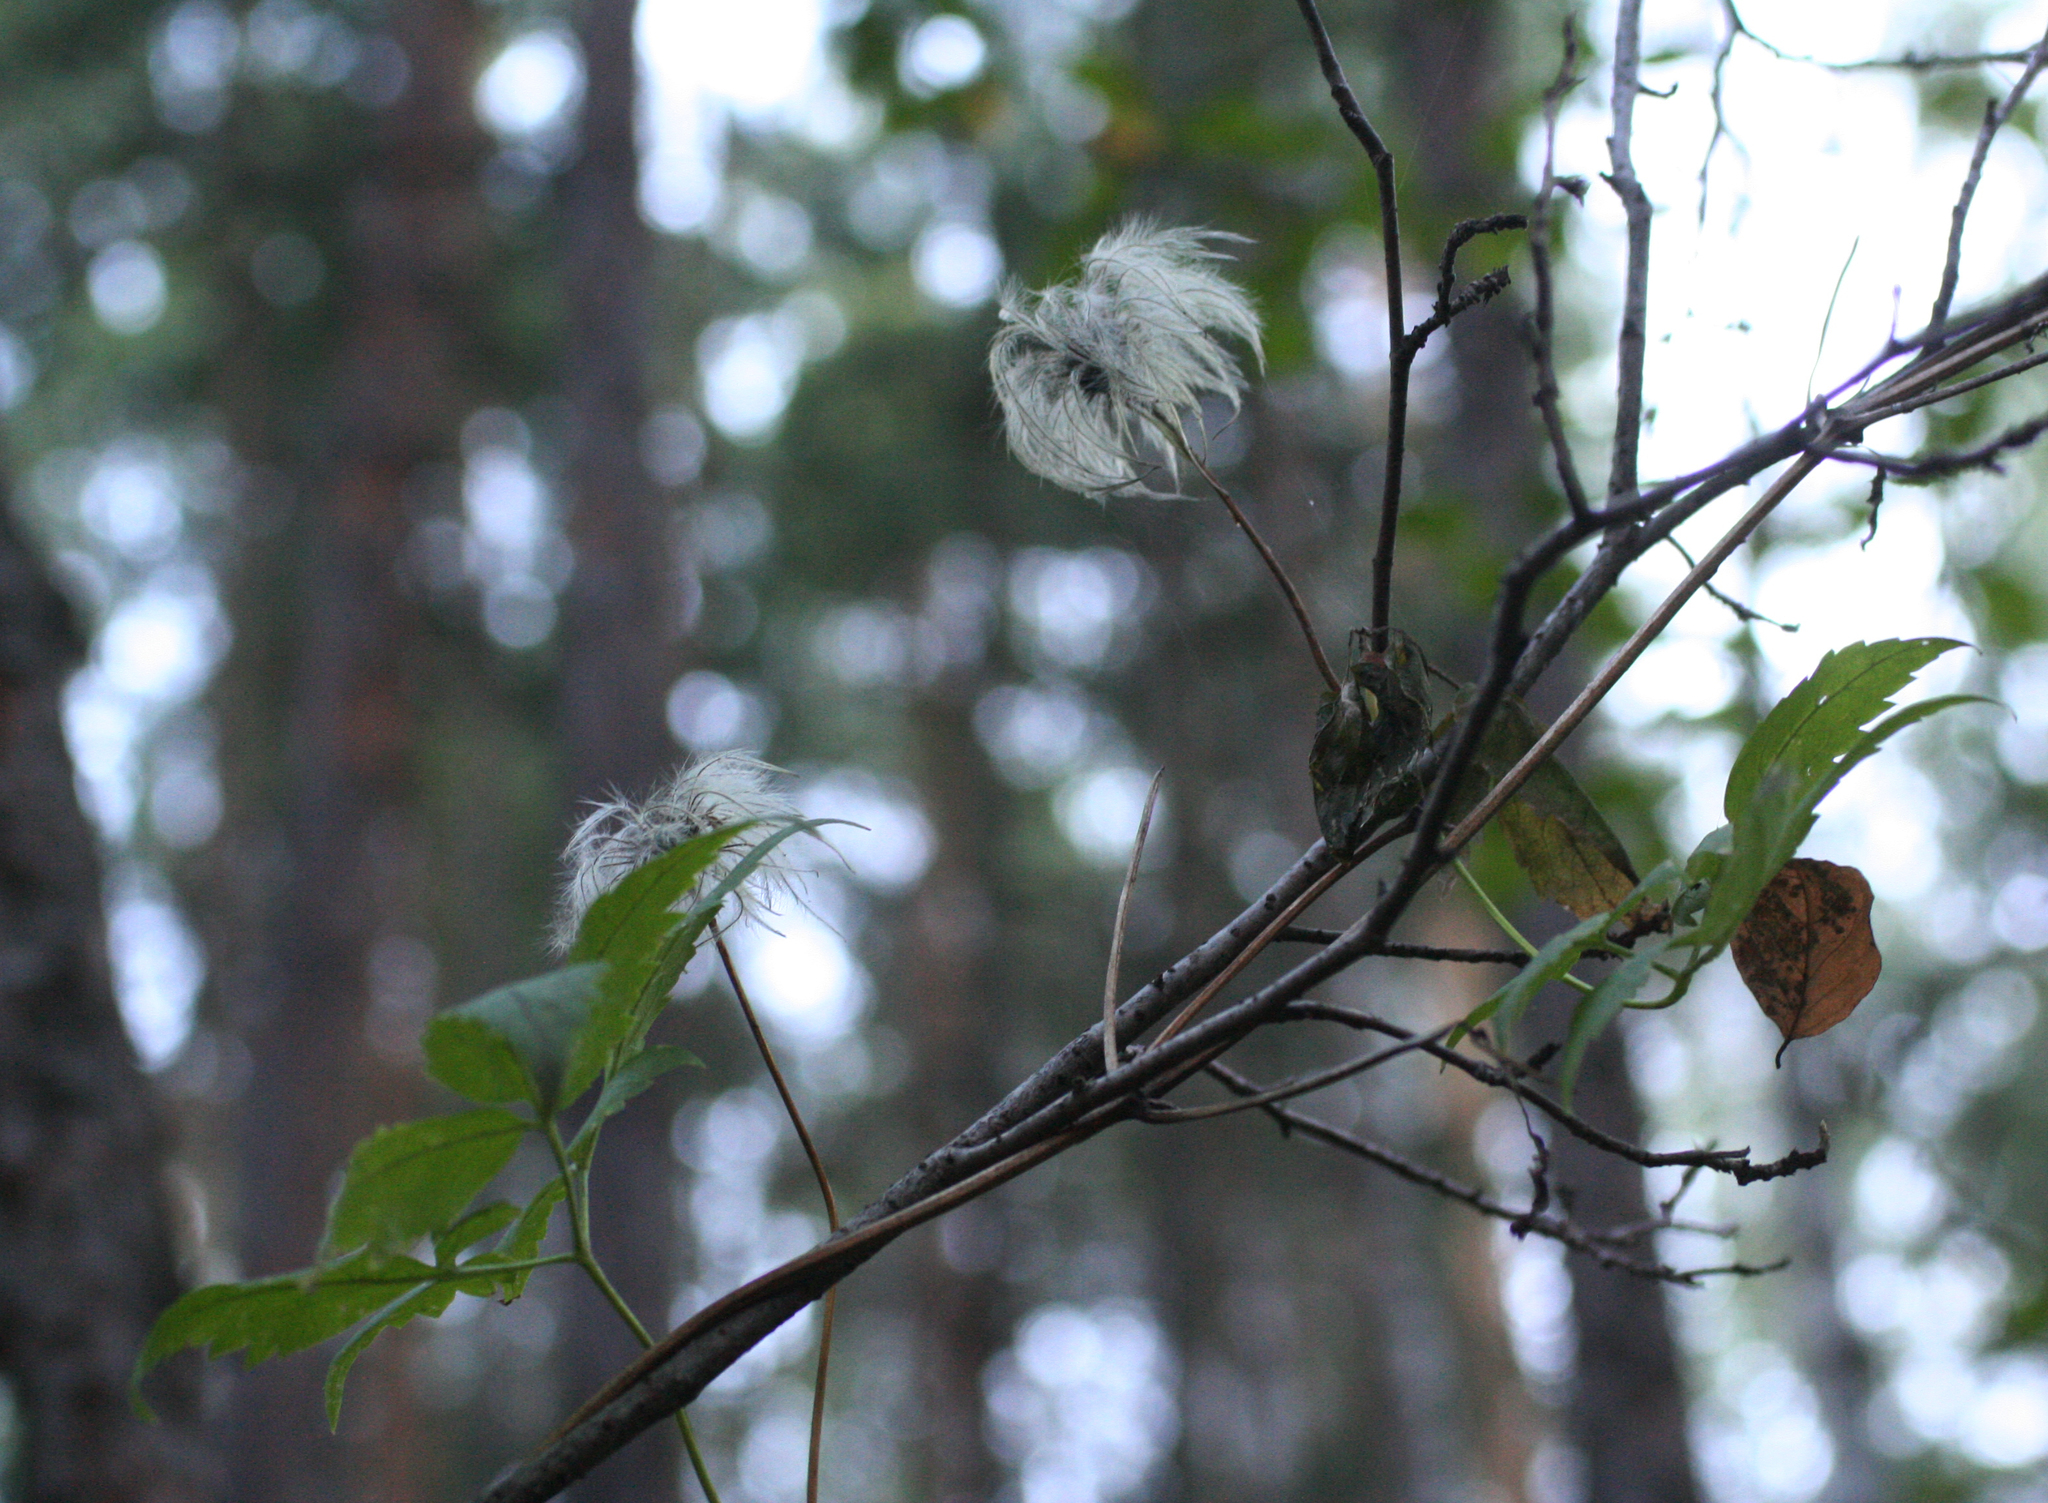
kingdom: Plantae
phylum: Tracheophyta
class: Magnoliopsida
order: Ranunculales
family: Ranunculaceae
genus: Clematis
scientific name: Clematis sibirica
